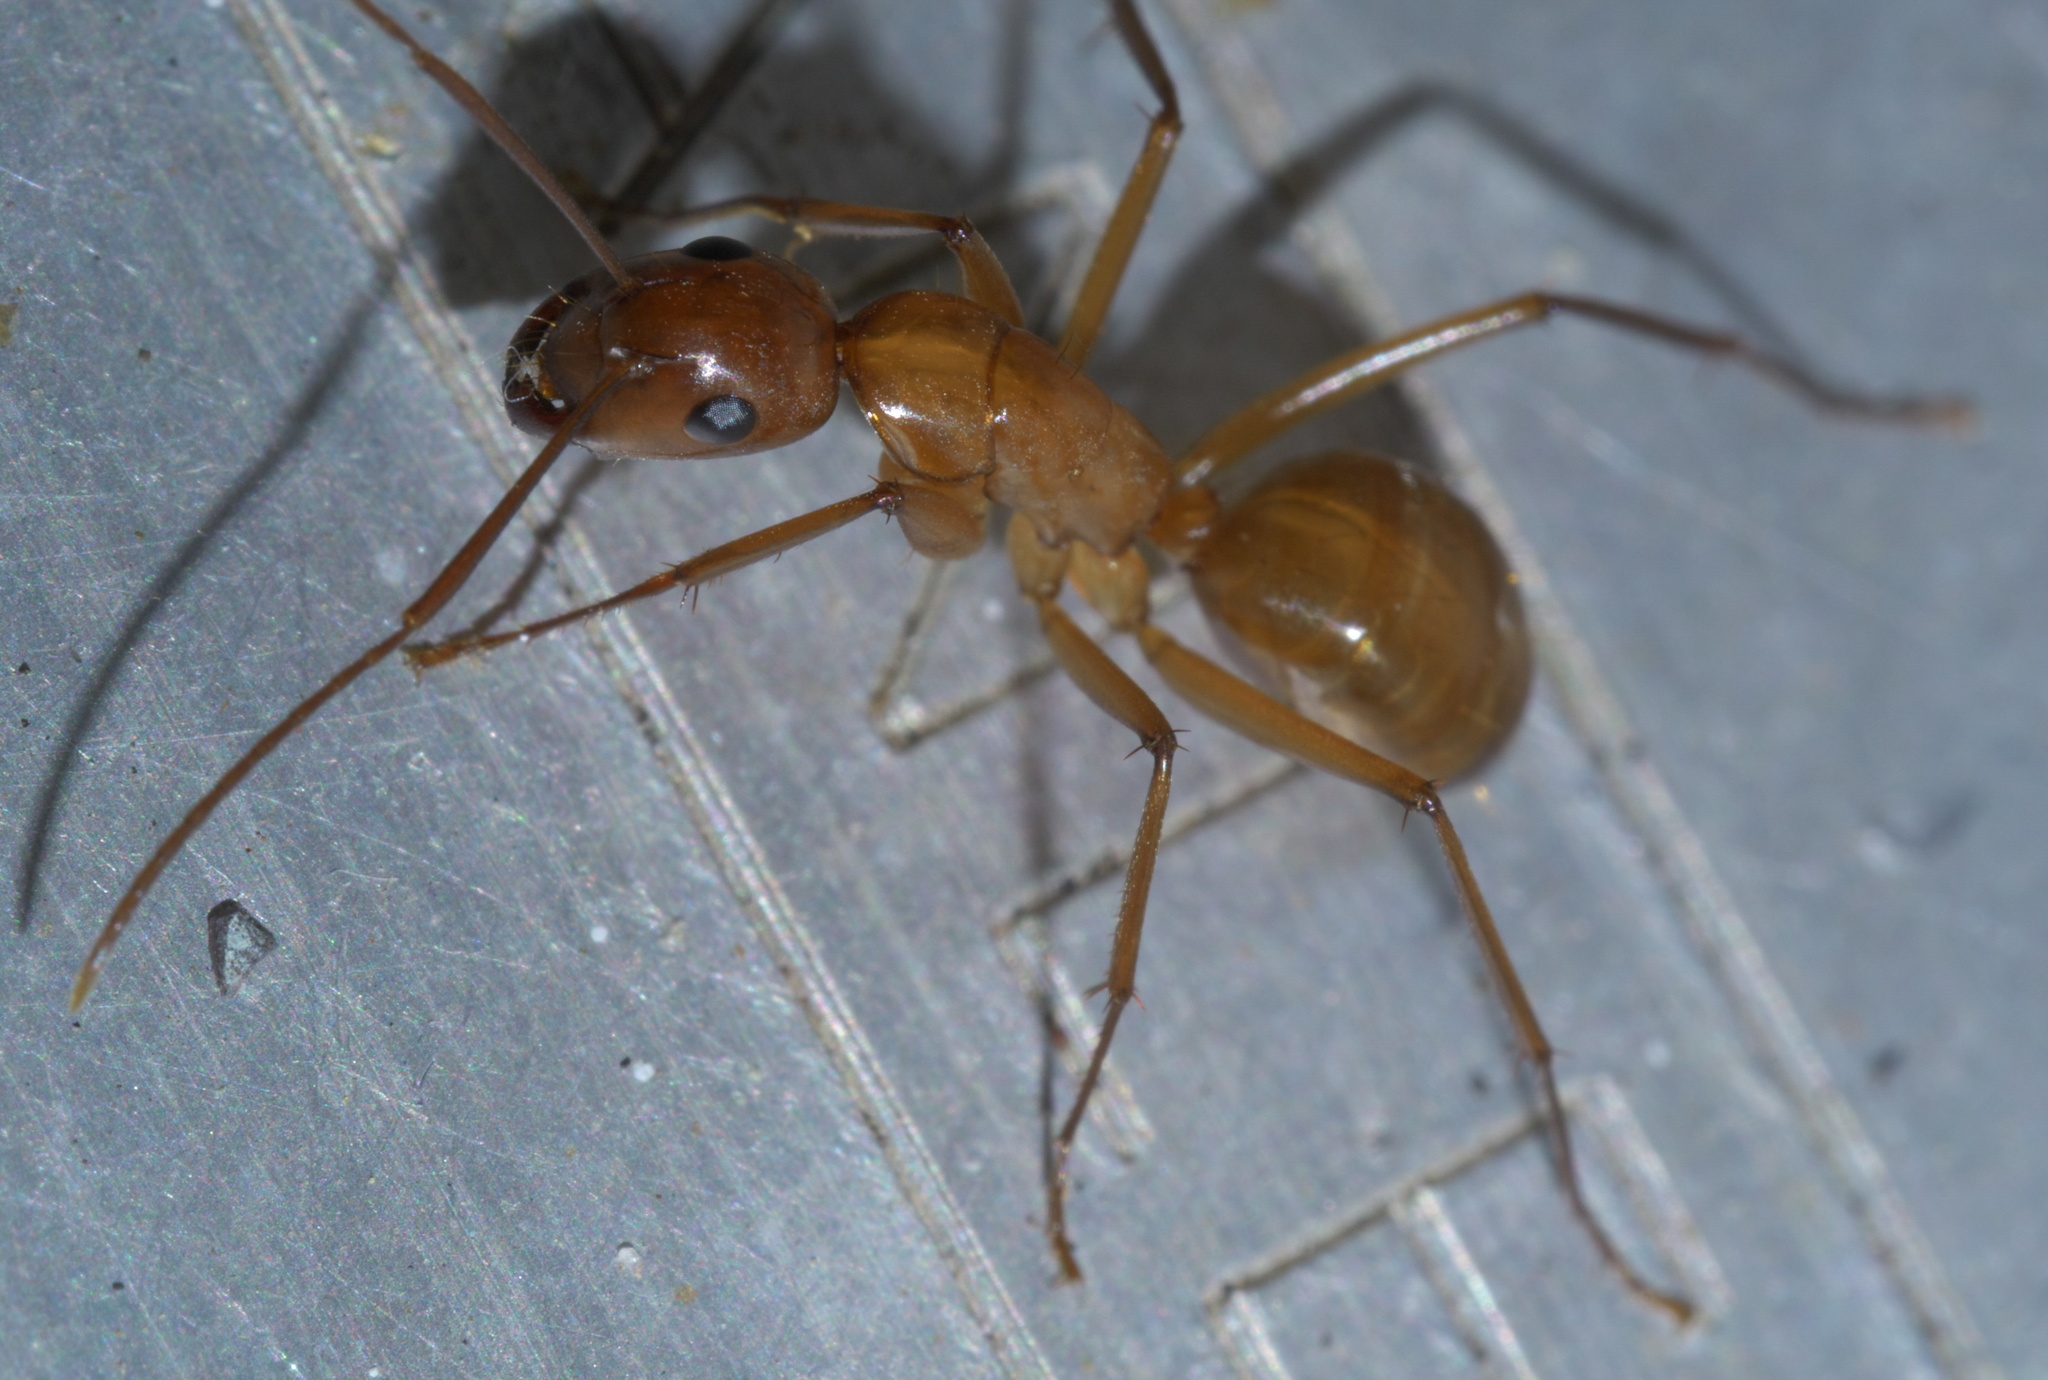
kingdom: Animalia
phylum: Arthropoda
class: Insecta
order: Hymenoptera
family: Formicidae
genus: Camponotus
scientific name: Camponotus castaneus
